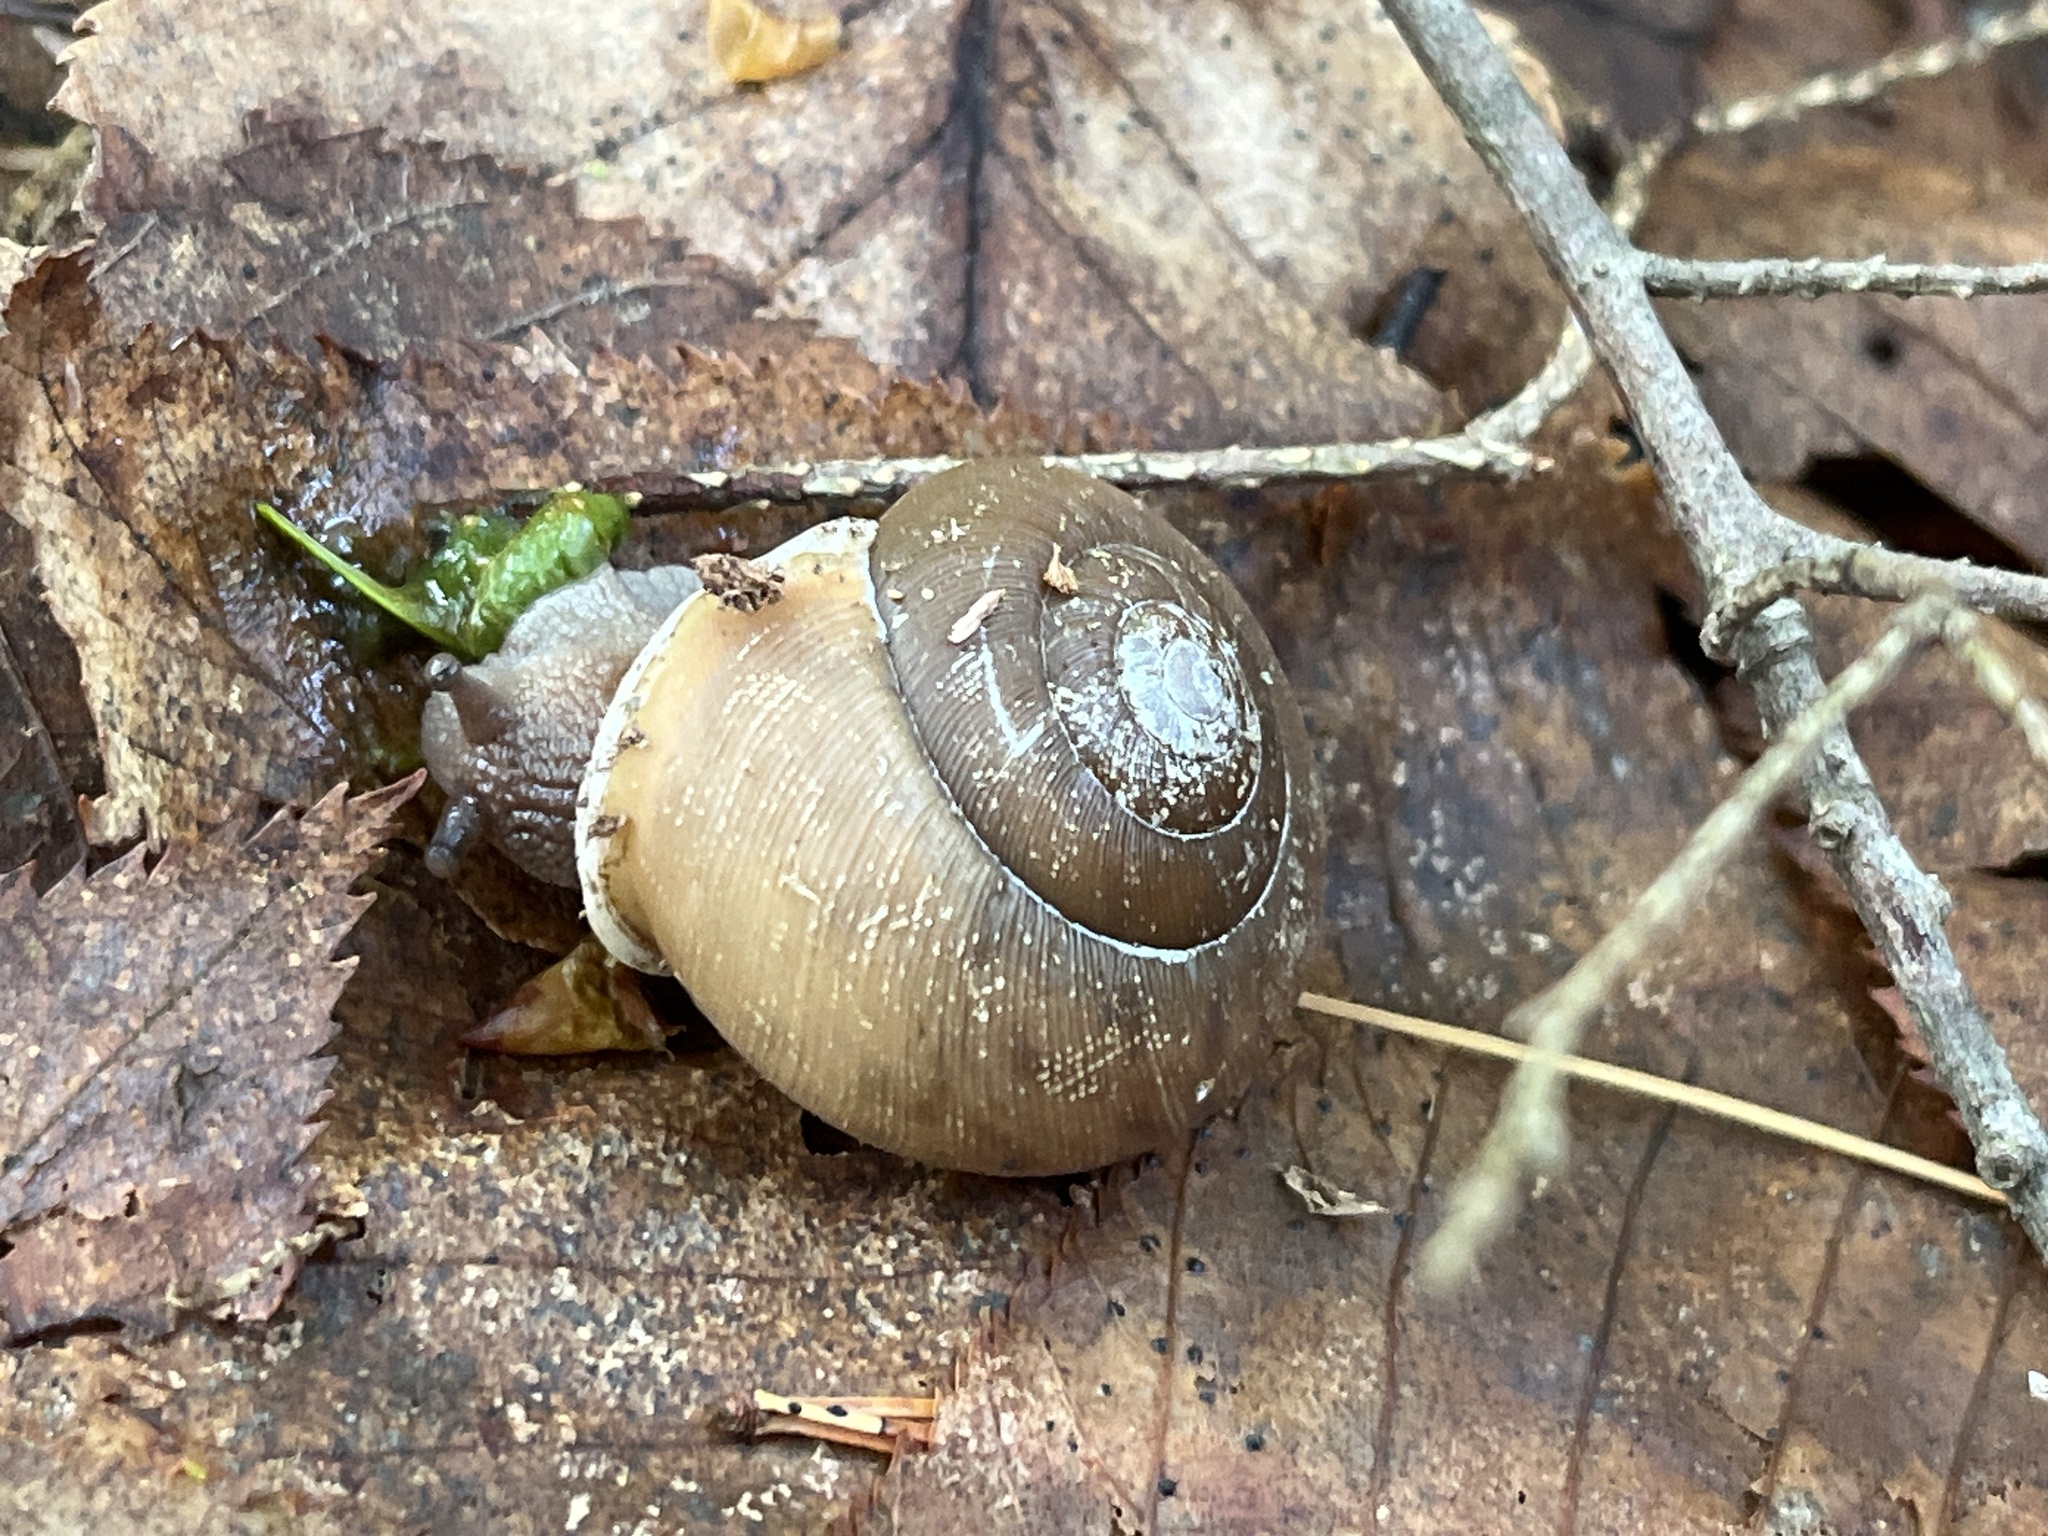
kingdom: Animalia
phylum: Mollusca
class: Gastropoda
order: Stylommatophora
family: Polygyridae
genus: Neohelix
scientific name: Neohelix albolabris
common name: Eastern whitelip
